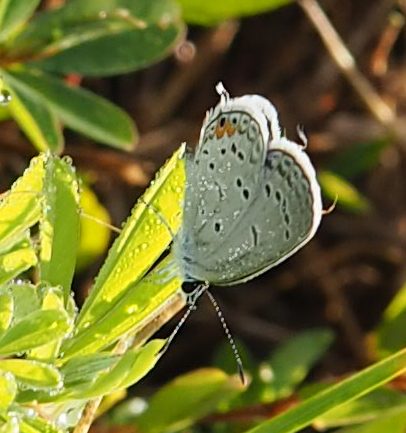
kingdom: Animalia
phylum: Arthropoda
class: Insecta
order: Lepidoptera
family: Lycaenidae
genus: Elkalyce
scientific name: Elkalyce comyntas
